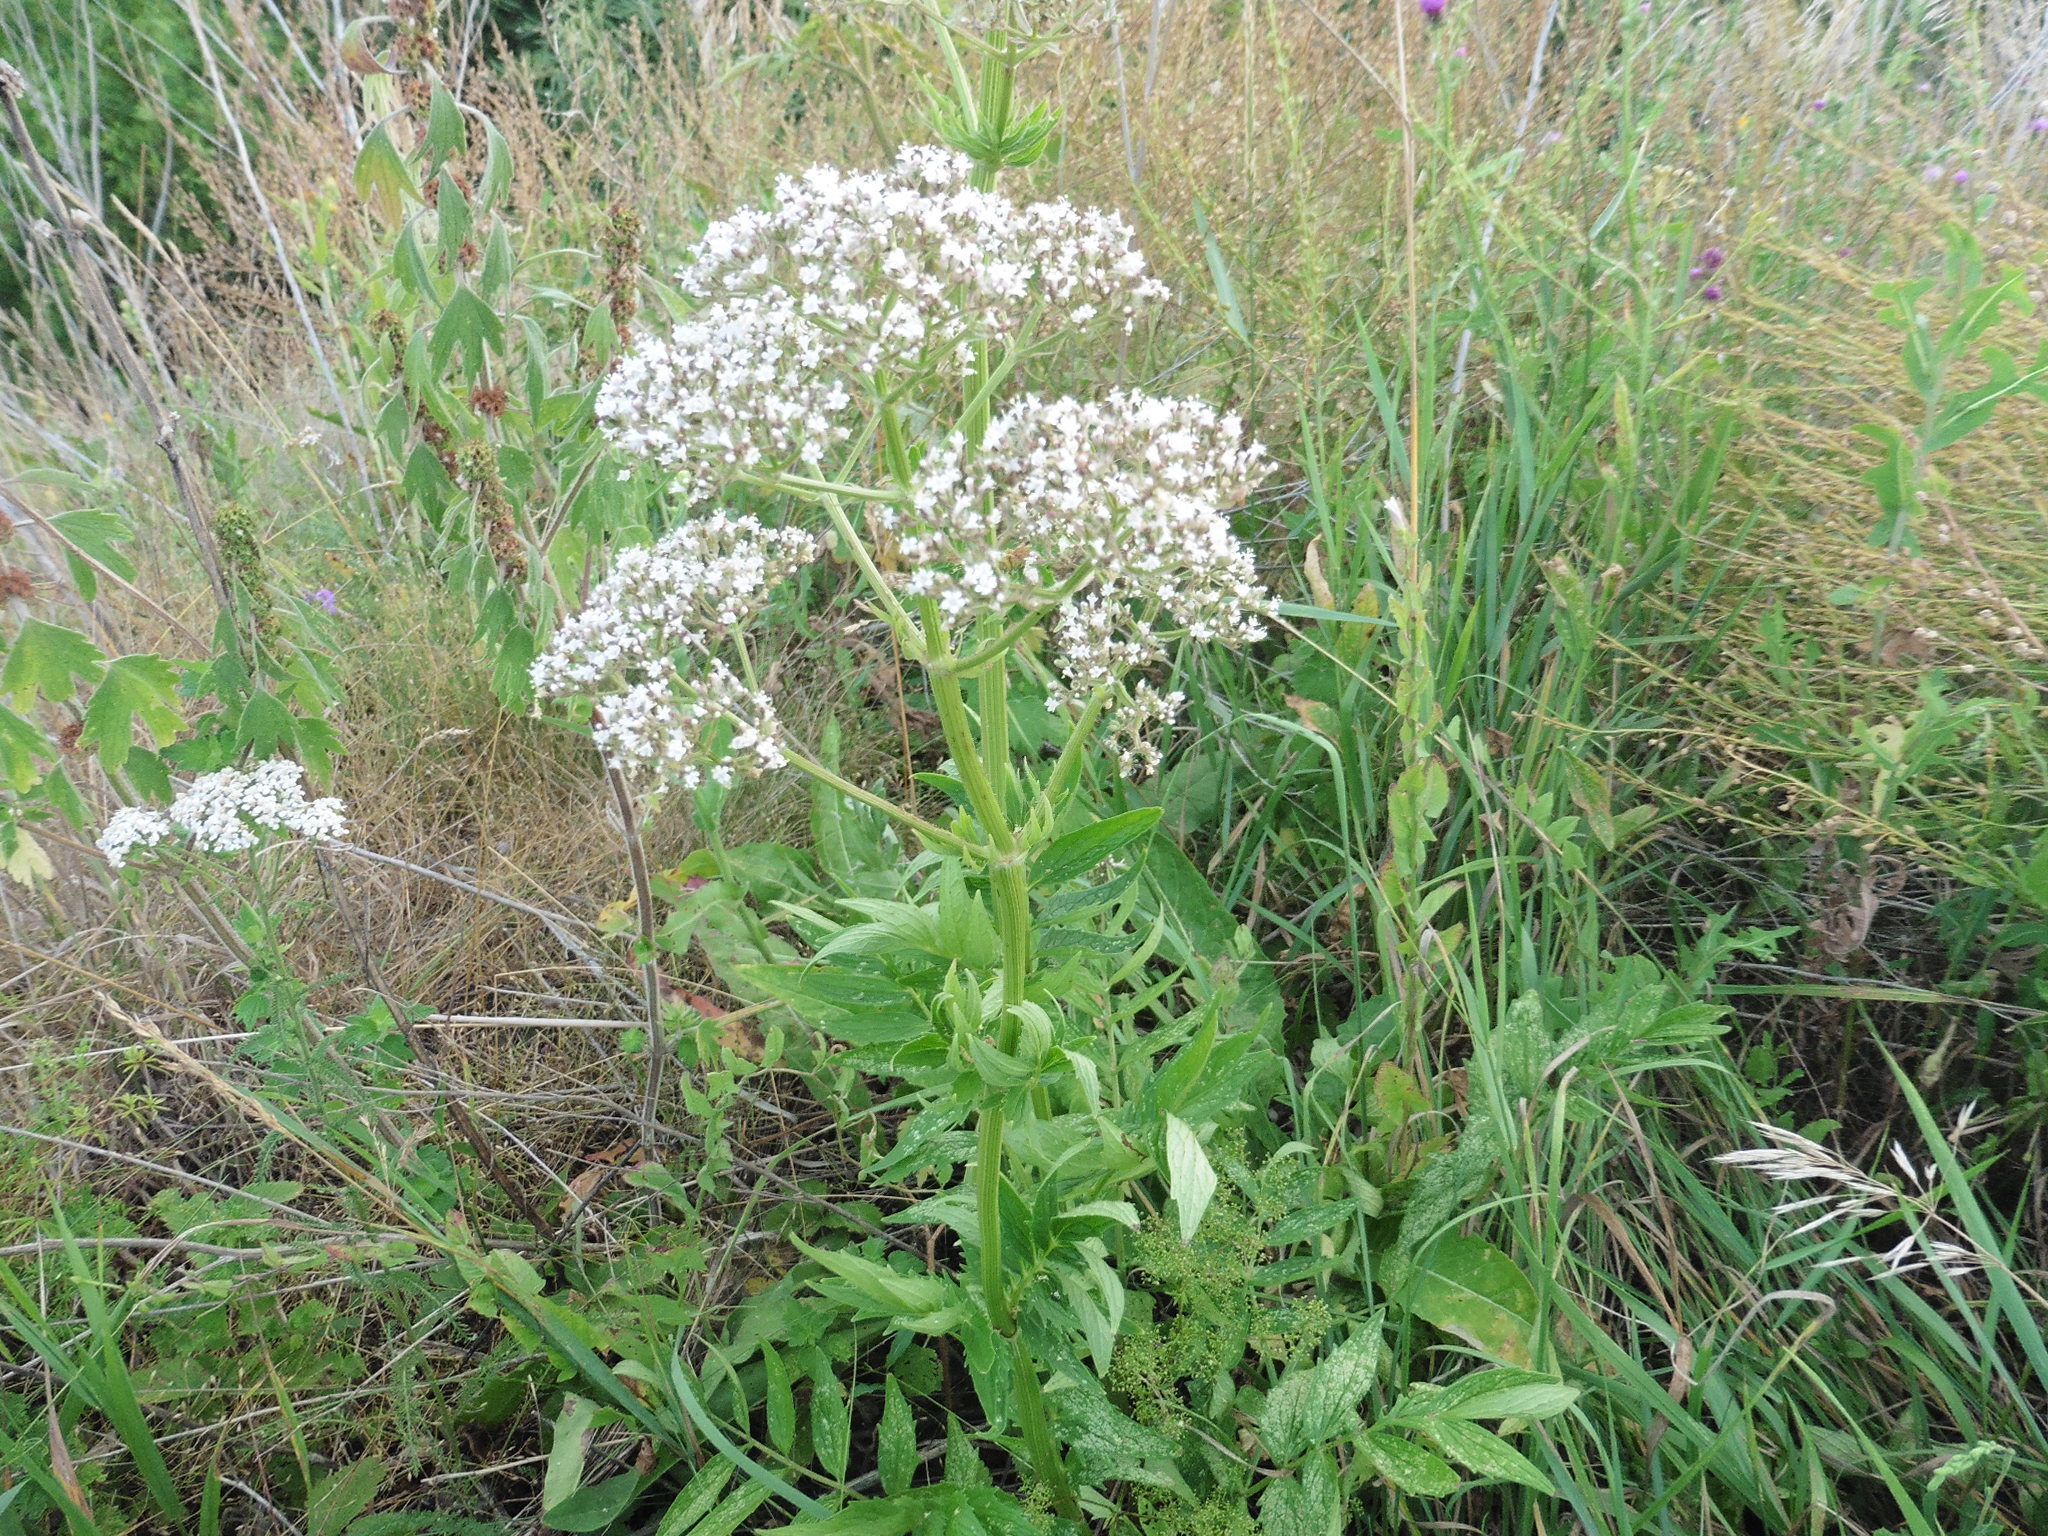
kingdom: Plantae
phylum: Tracheophyta
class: Magnoliopsida
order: Dipsacales
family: Caprifoliaceae
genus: Valeriana
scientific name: Valeriana officinalis
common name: Common valerian
